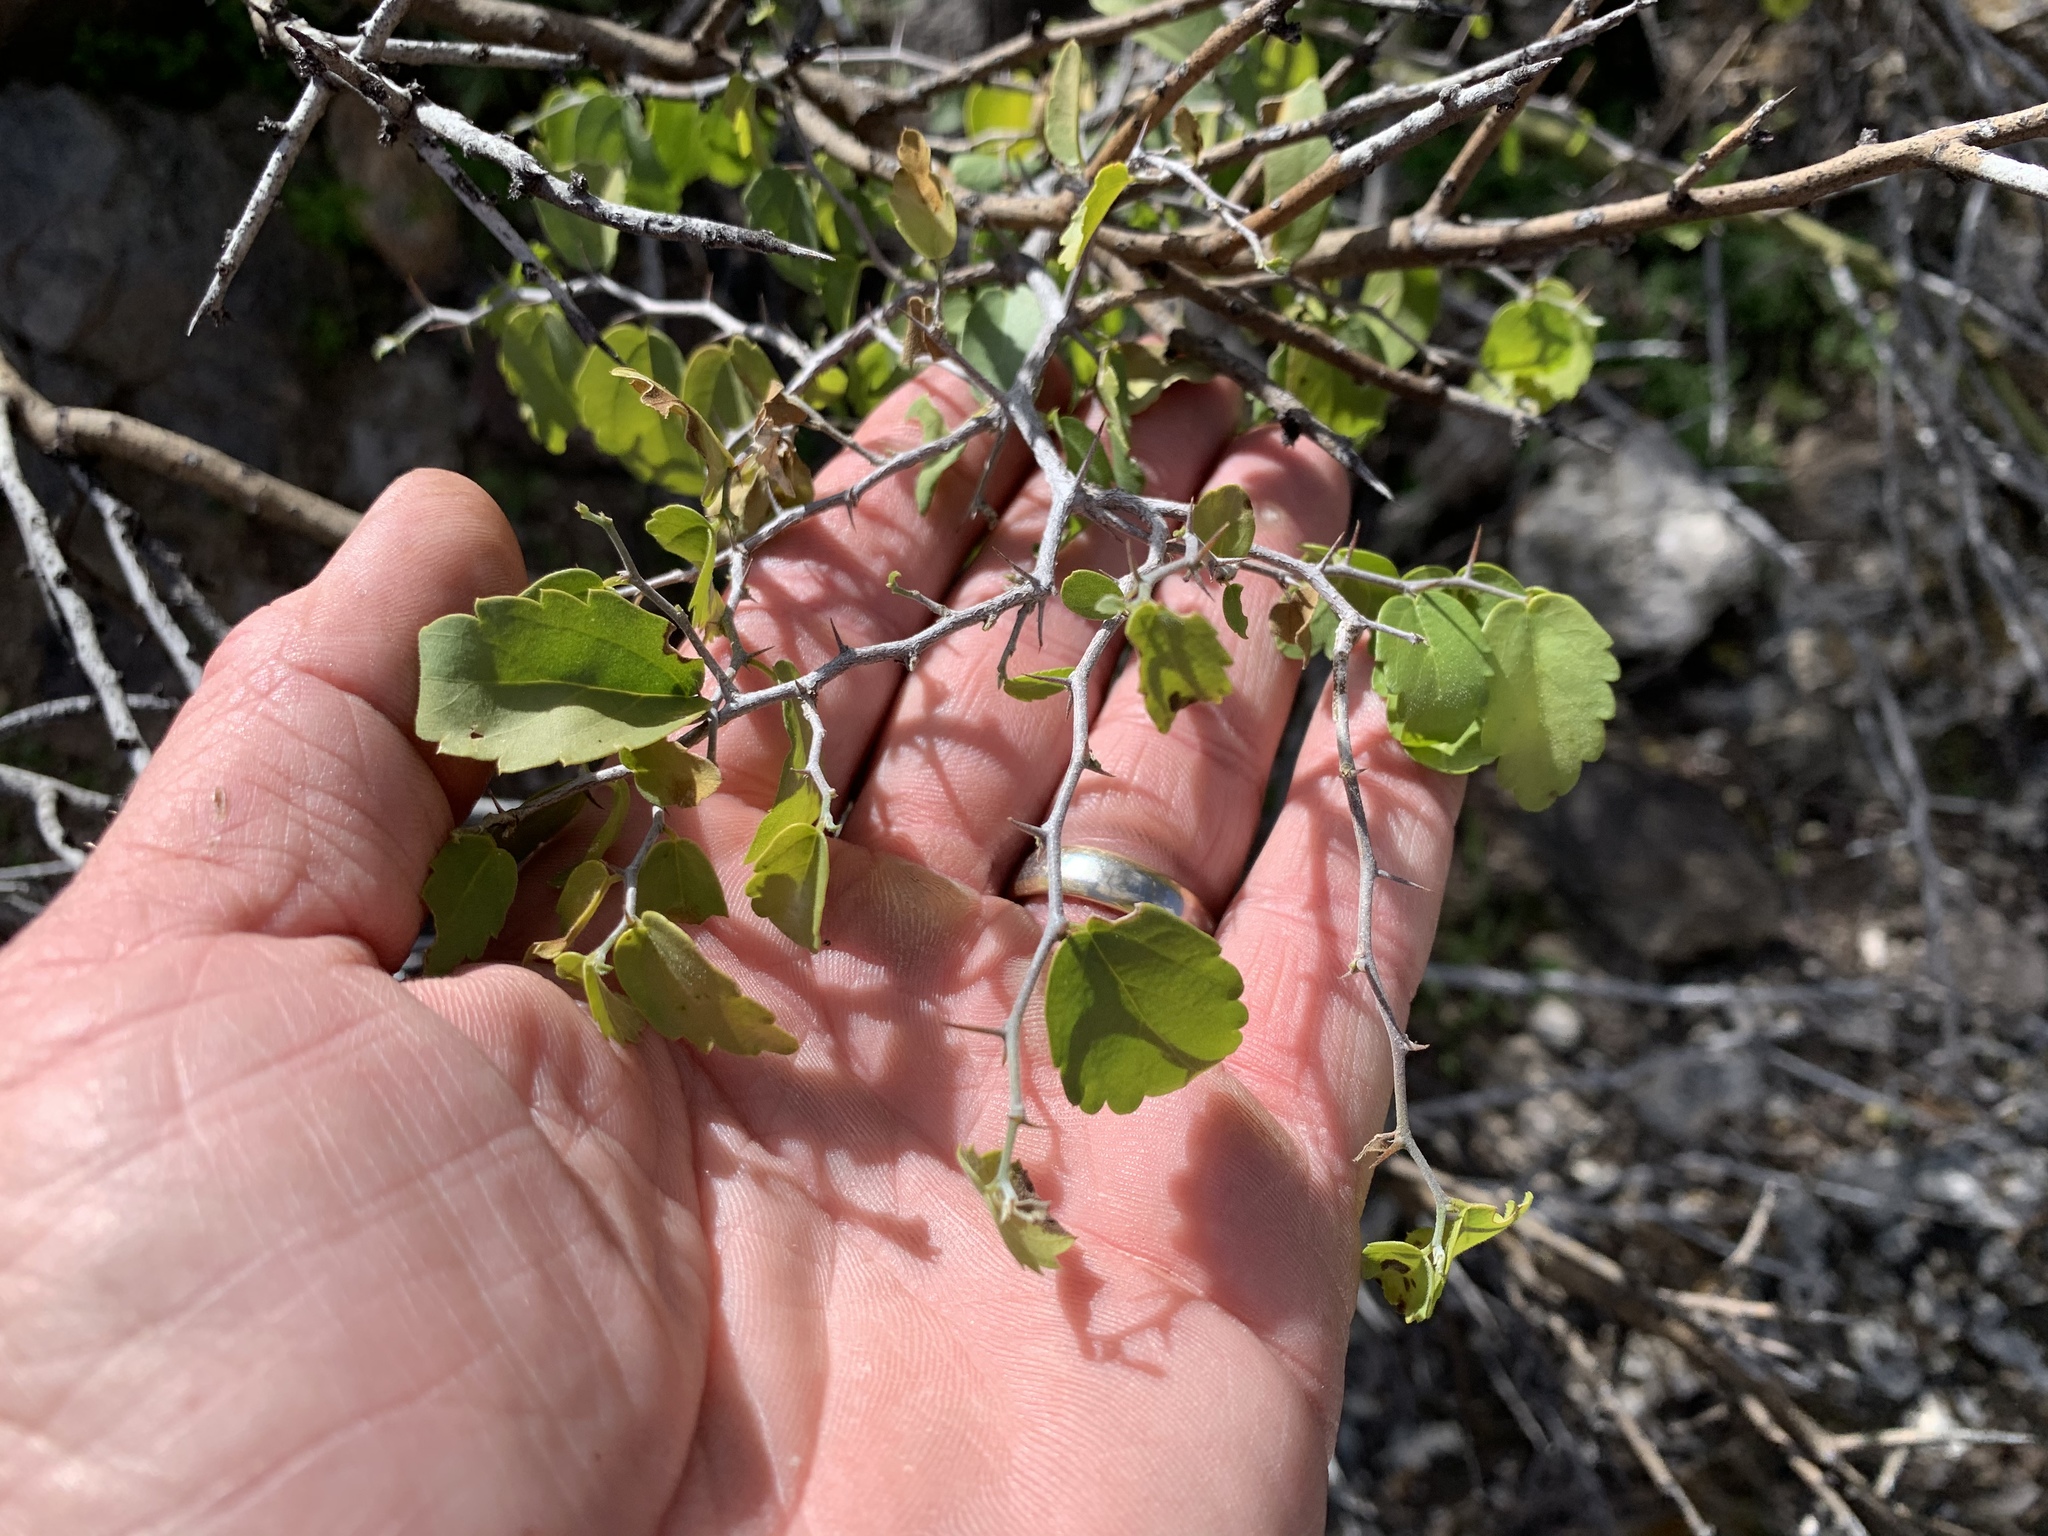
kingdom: Plantae
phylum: Tracheophyta
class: Magnoliopsida
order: Rosales
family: Cannabaceae
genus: Celtis
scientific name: Celtis pallida
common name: Desert hackberry
